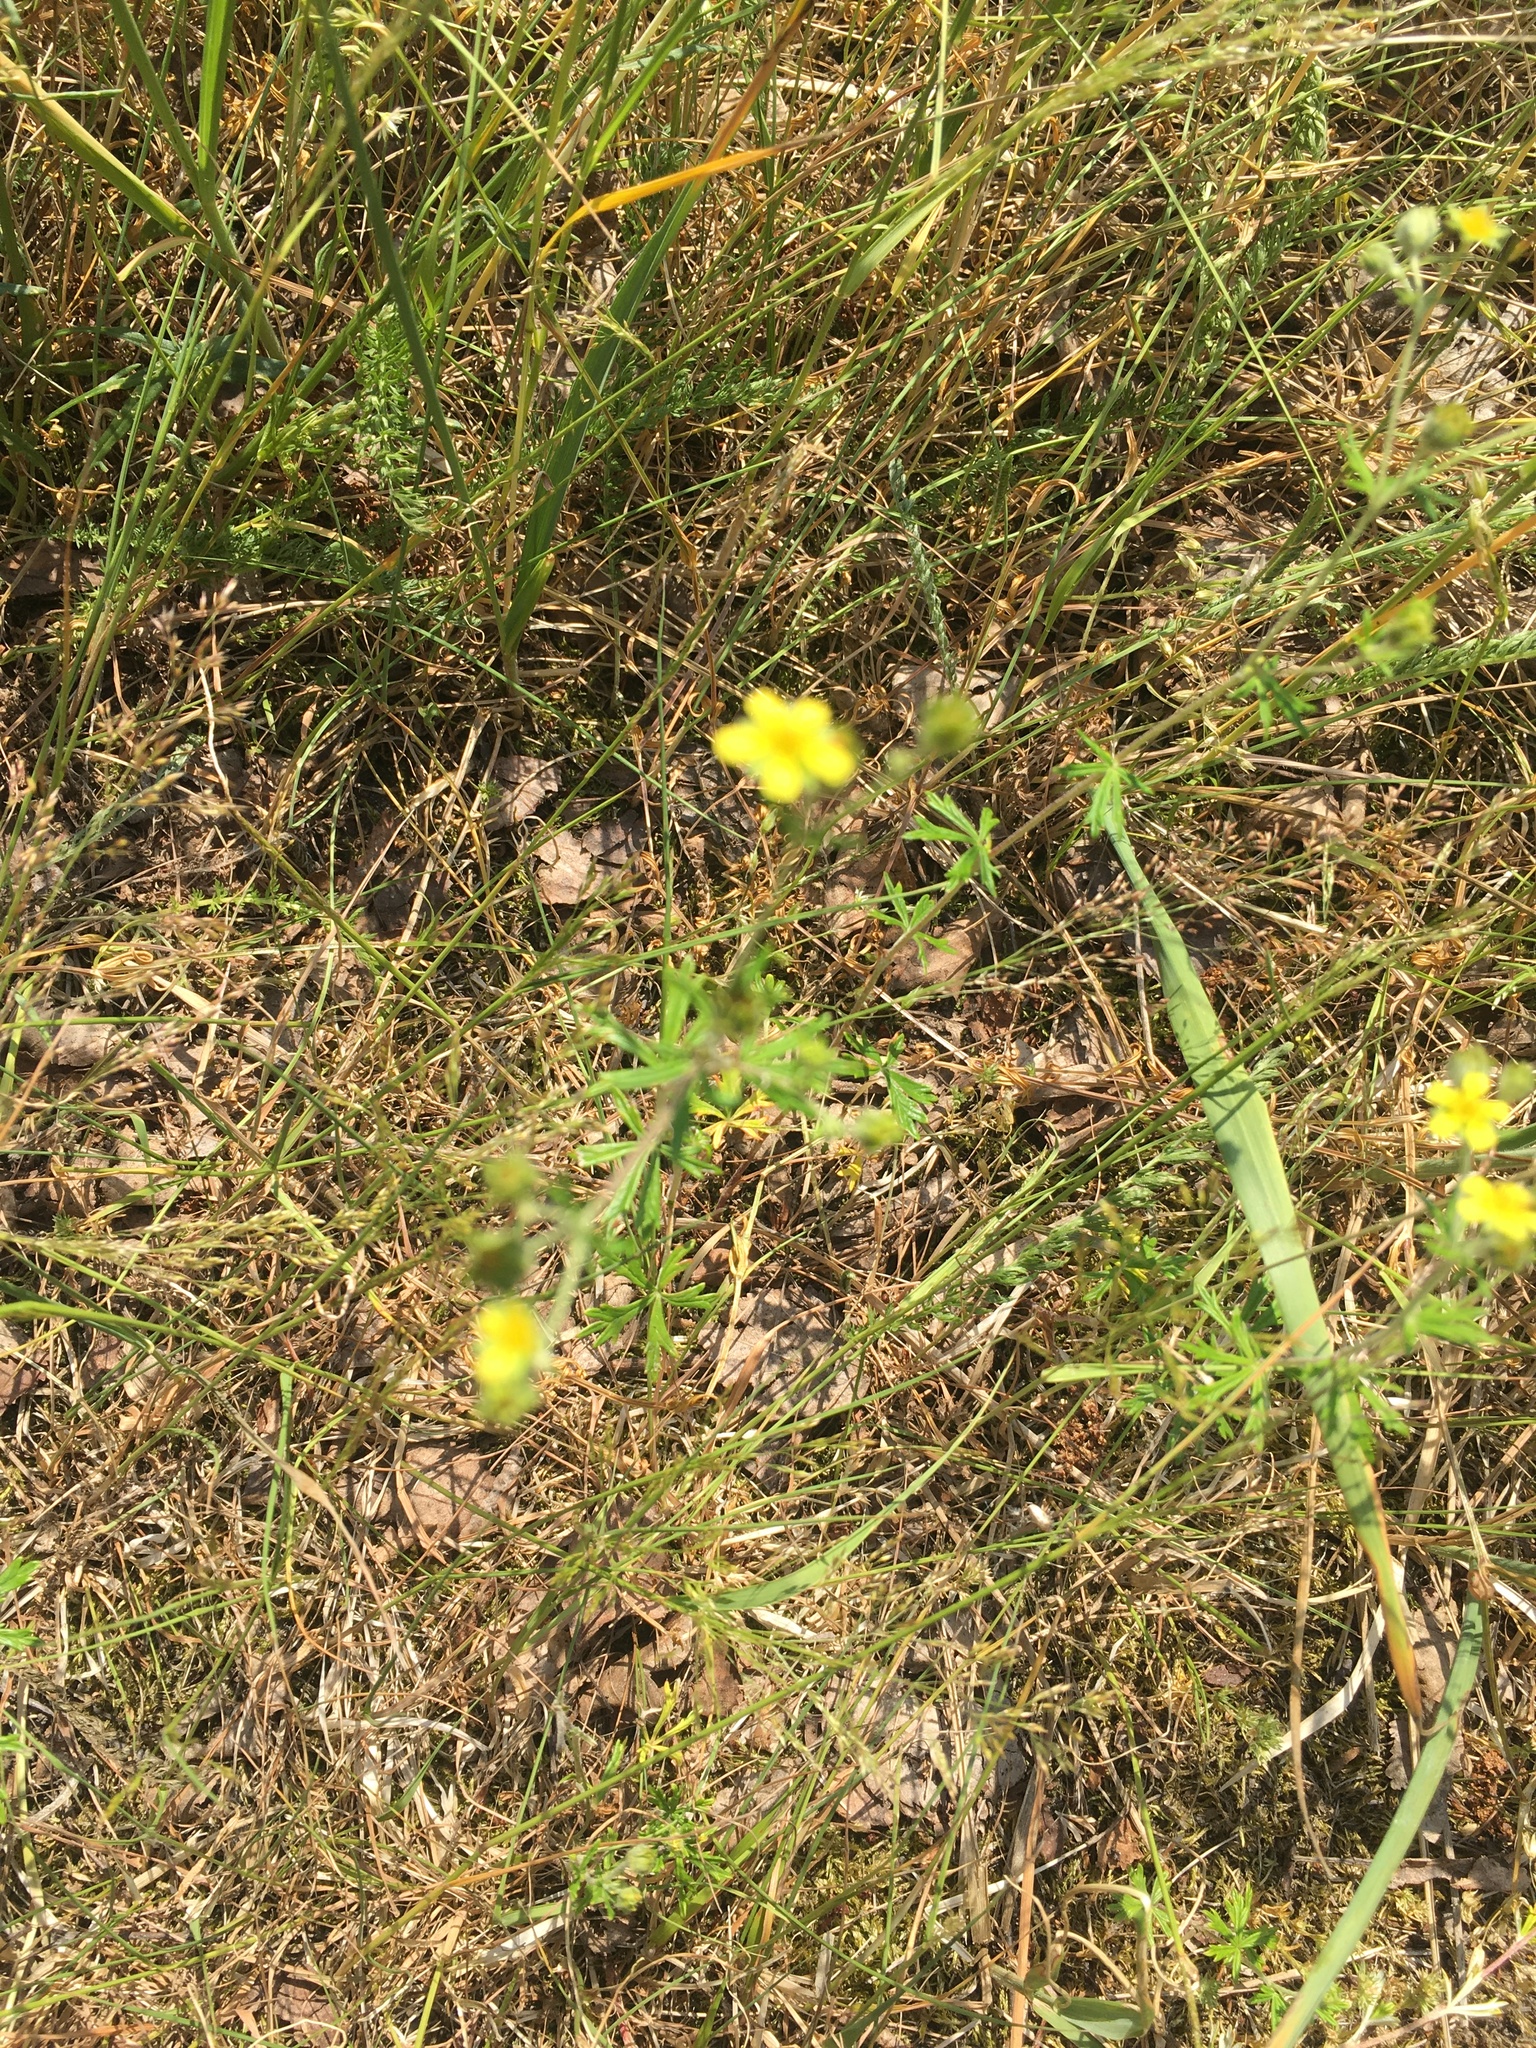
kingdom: Plantae
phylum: Tracheophyta
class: Magnoliopsida
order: Rosales
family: Rosaceae
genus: Potentilla
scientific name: Potentilla argentea
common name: Hoary cinquefoil
